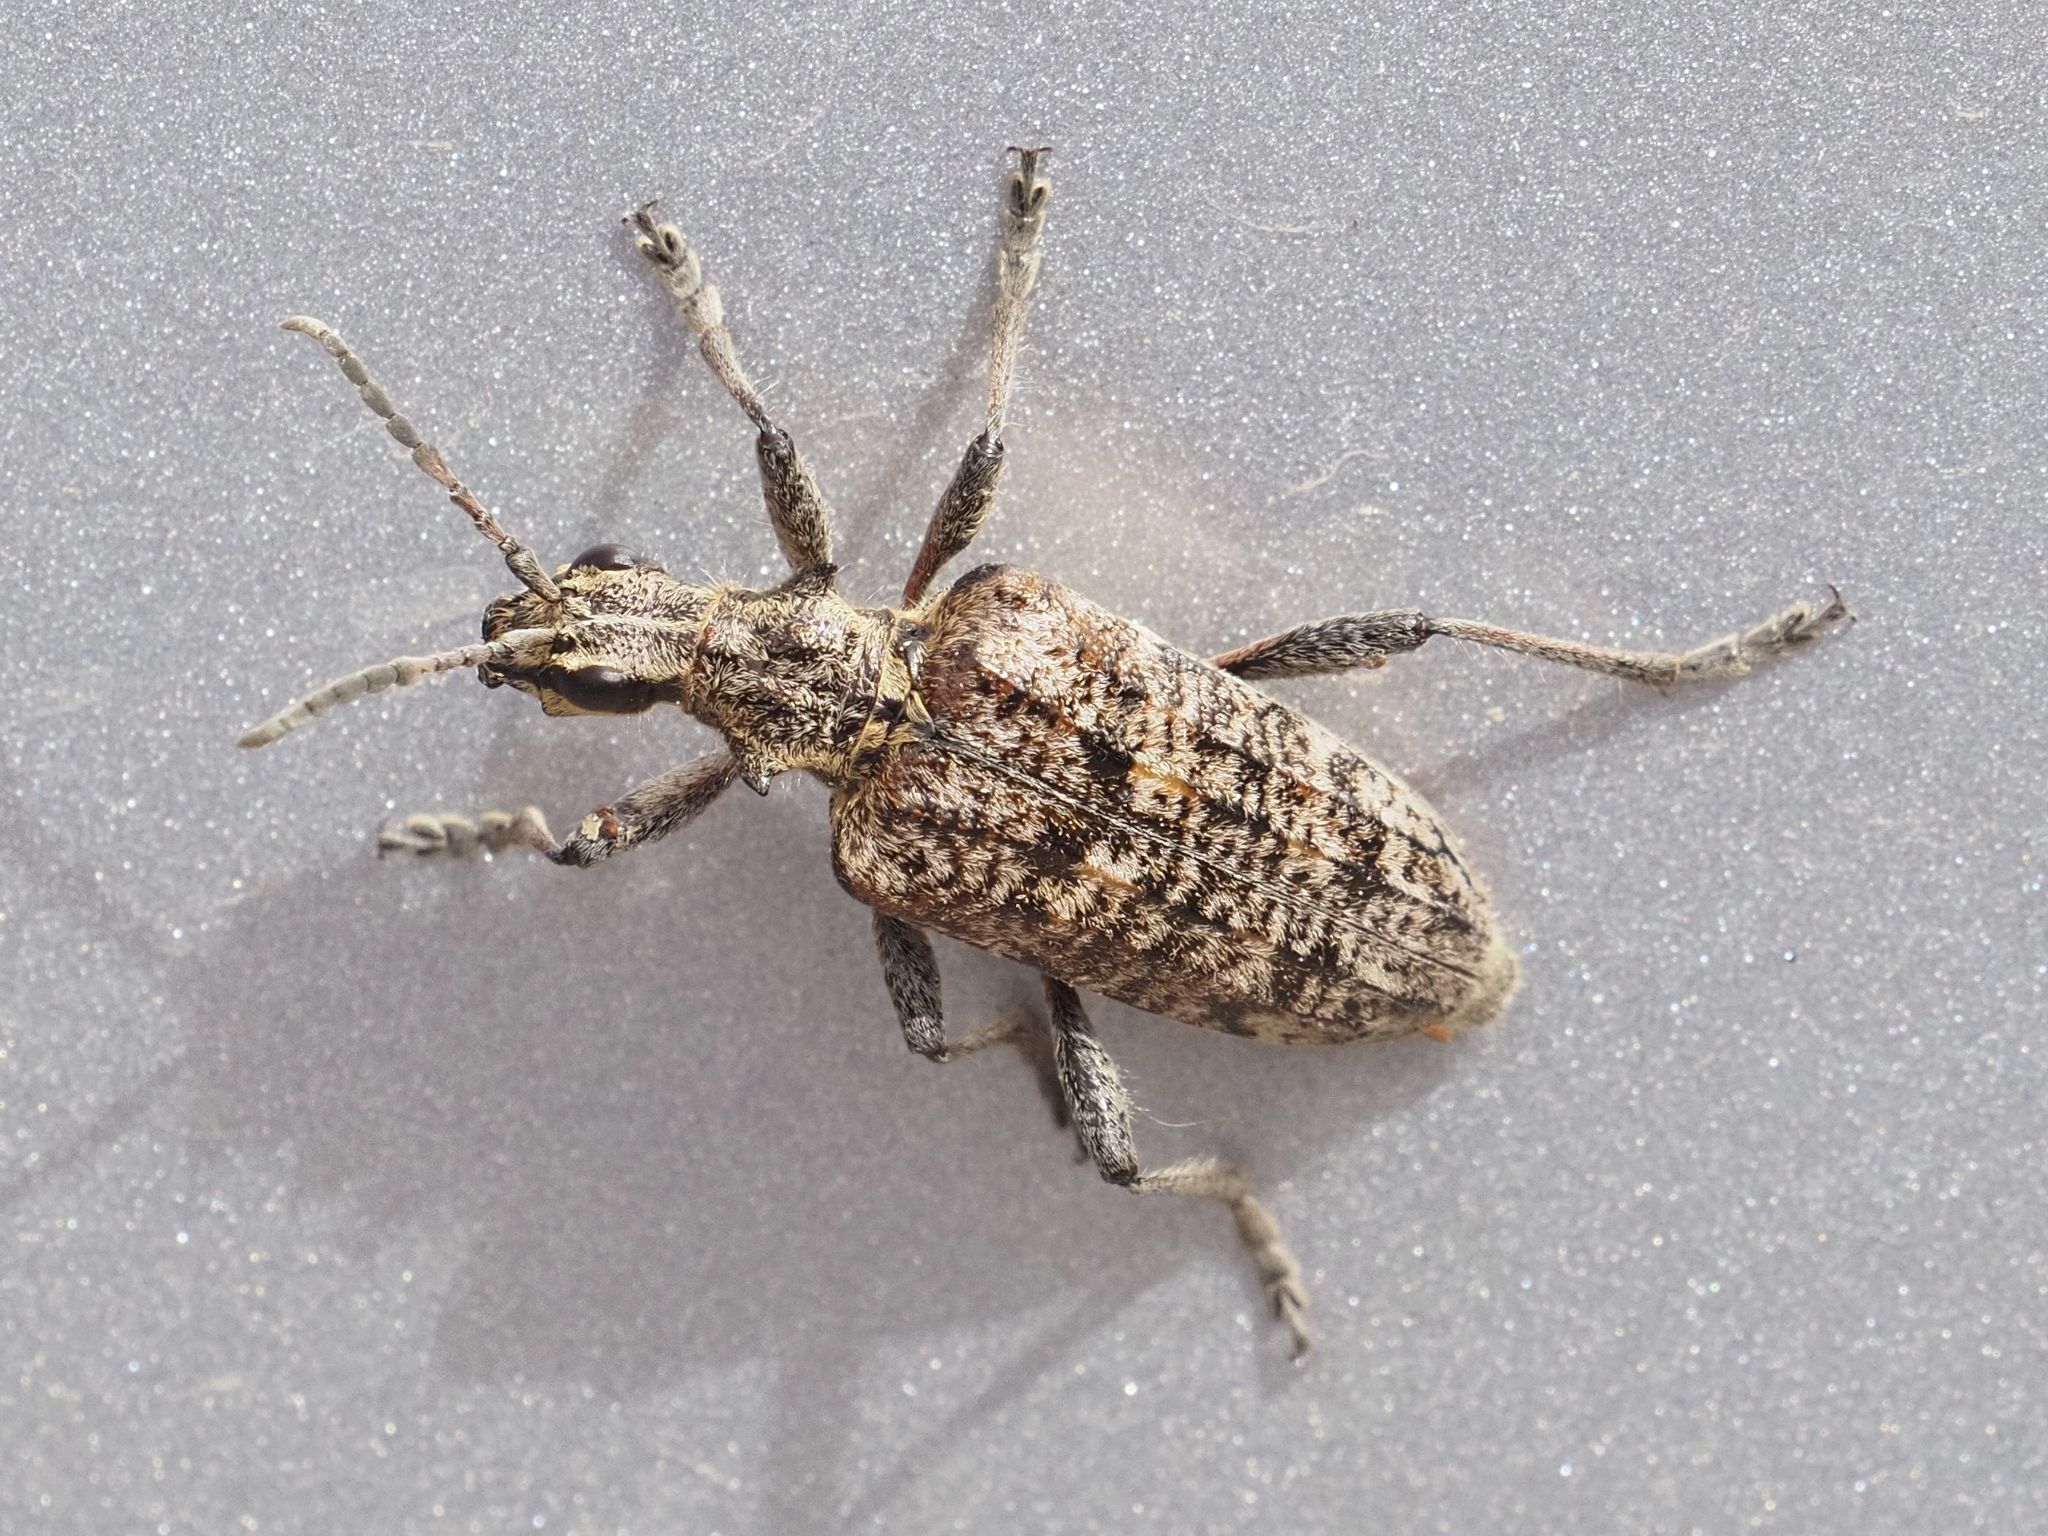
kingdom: Animalia
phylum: Arthropoda
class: Insecta
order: Coleoptera
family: Cerambycidae
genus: Rhagium
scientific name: Rhagium inquisitor
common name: Ribbed pine borer
